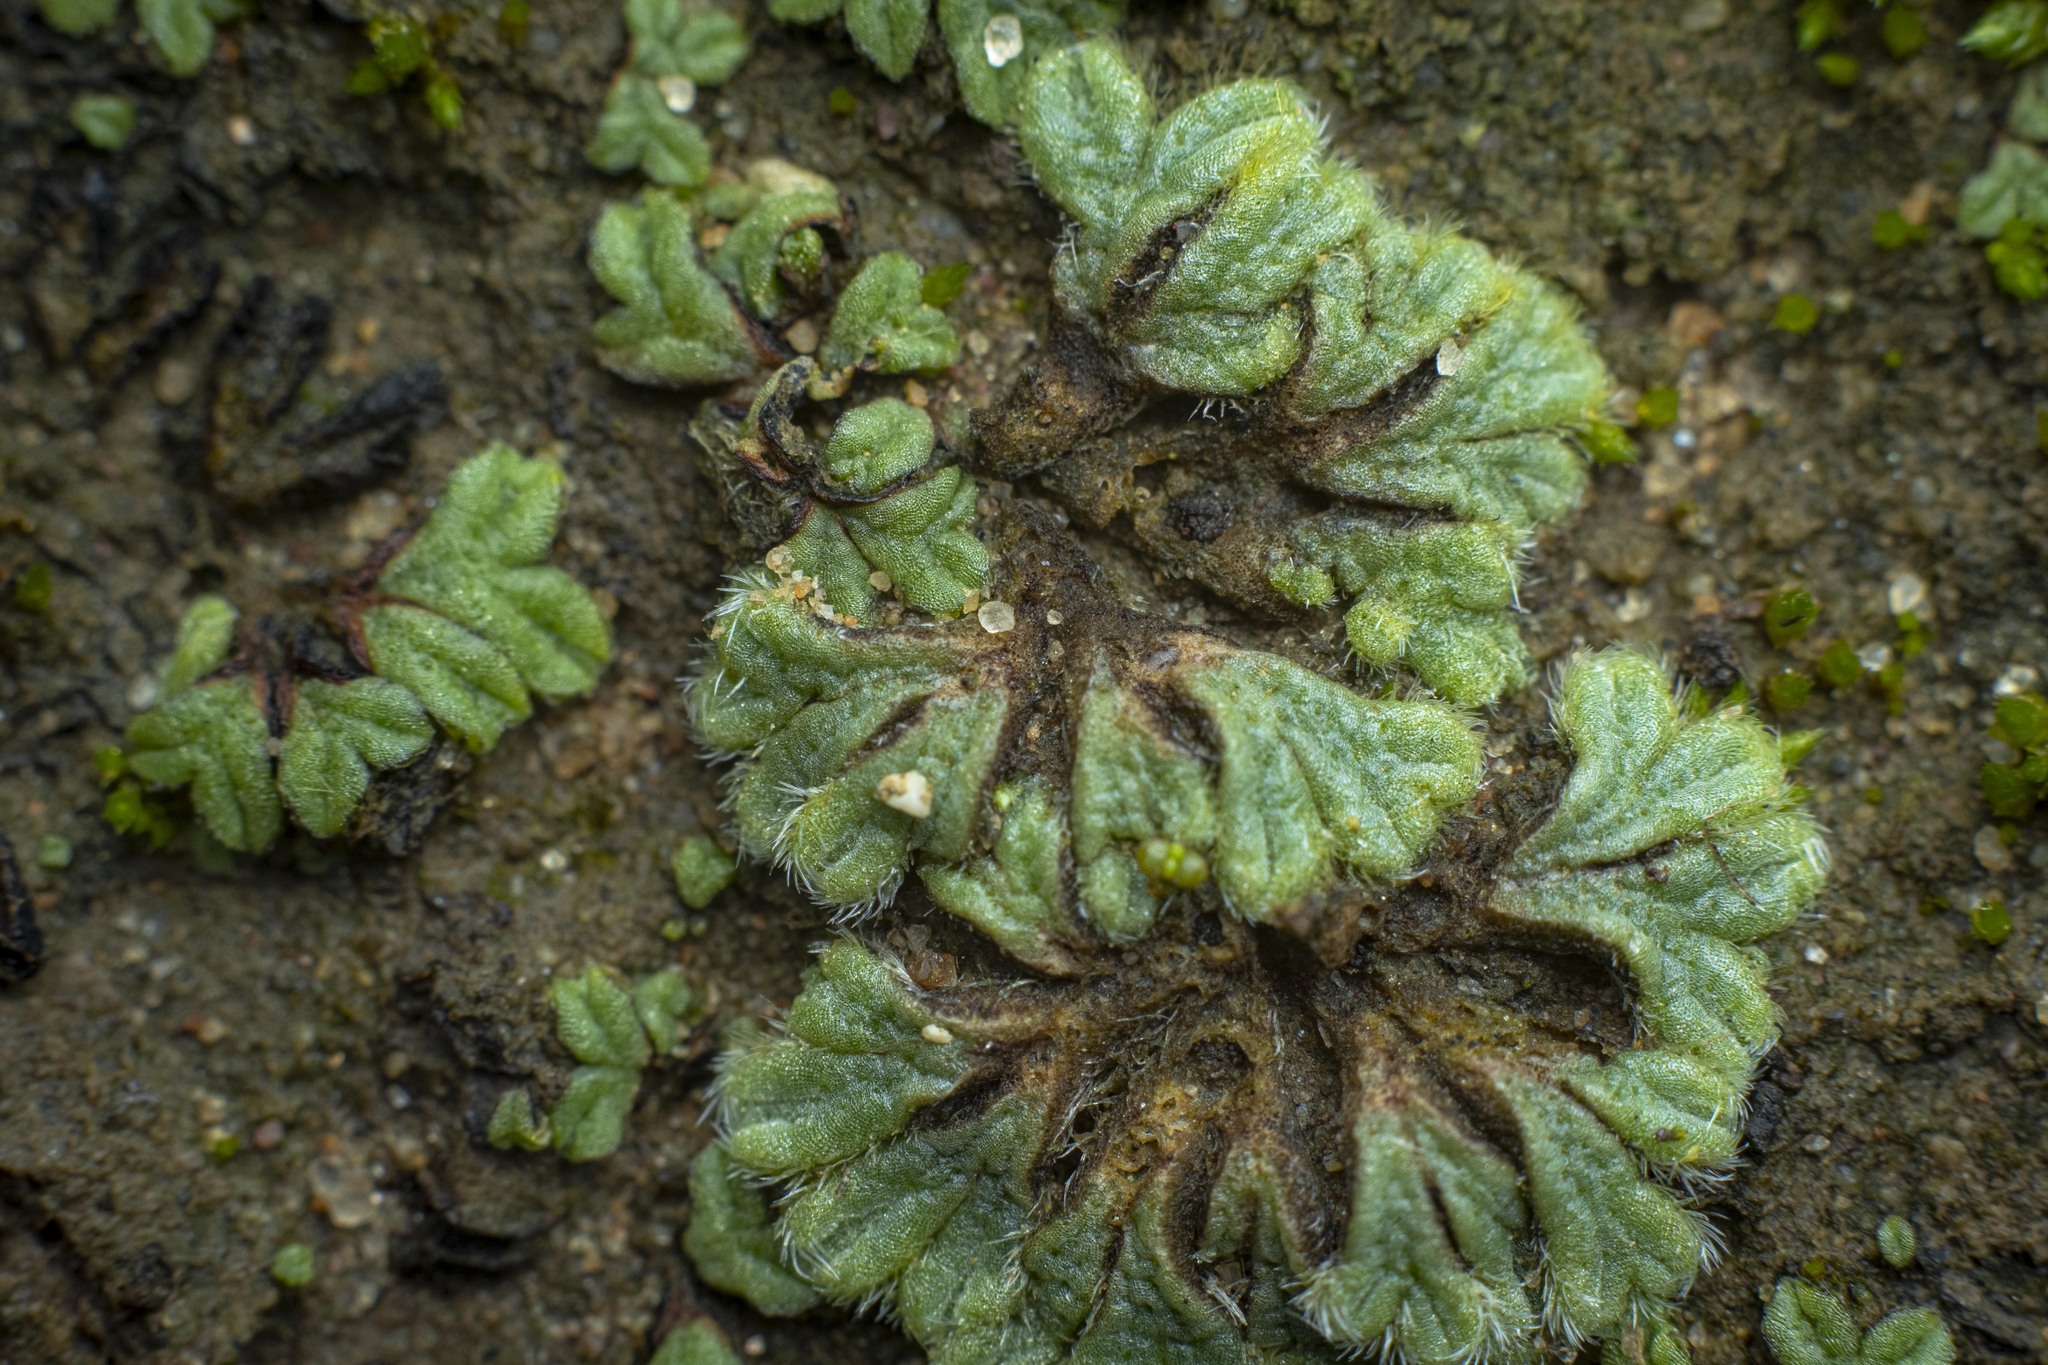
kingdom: Plantae
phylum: Marchantiophyta
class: Marchantiopsida
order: Marchantiales
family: Ricciaceae
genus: Riccia
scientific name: Riccia trichocarpa
